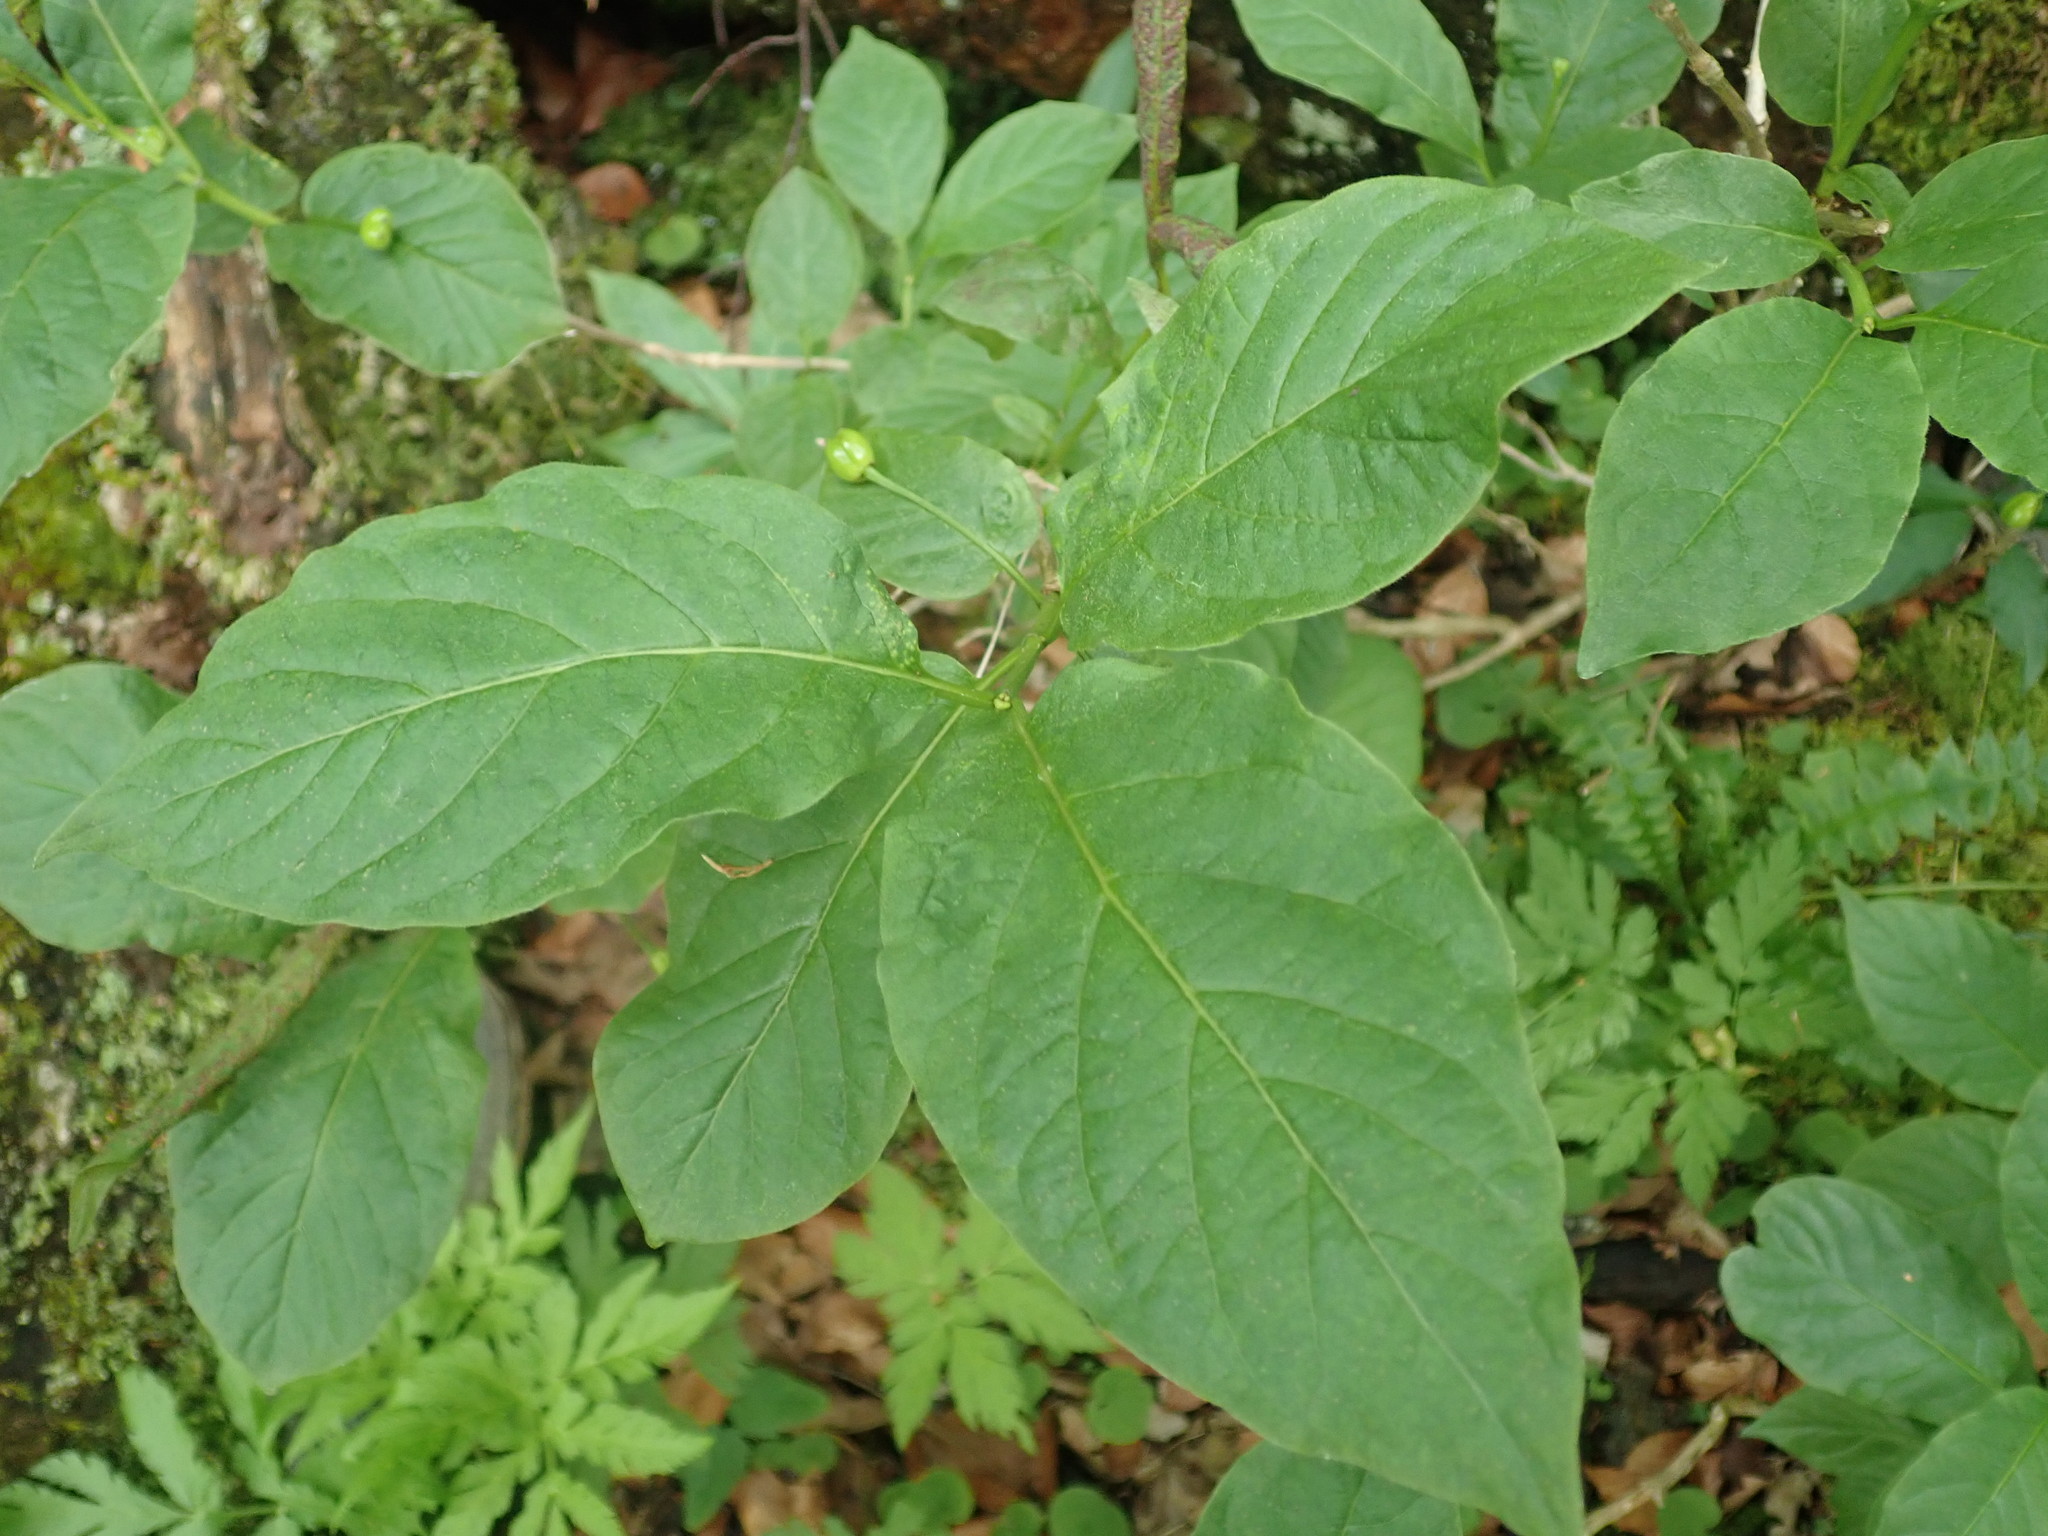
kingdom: Plantae
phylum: Tracheophyta
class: Magnoliopsida
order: Dipsacales
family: Caprifoliaceae
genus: Lonicera
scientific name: Lonicera alpigena
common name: Alpine honeysuckle
